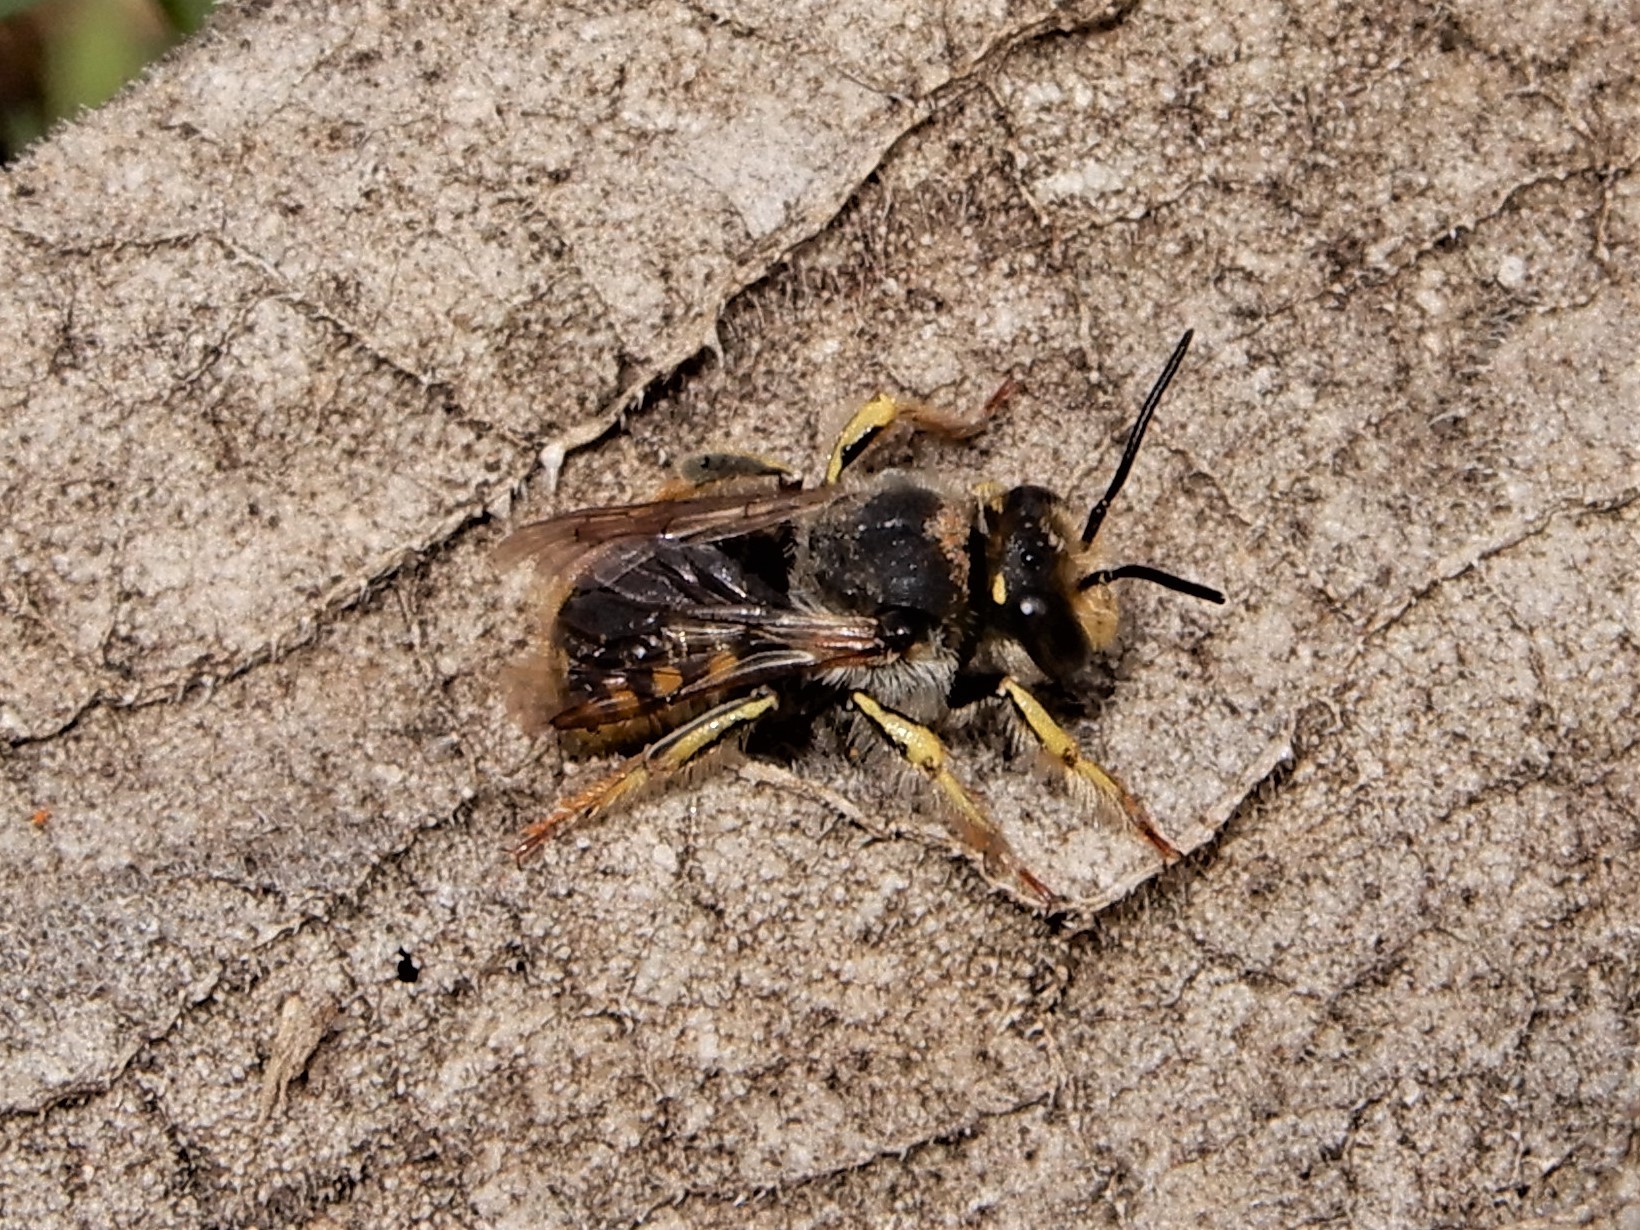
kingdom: Animalia
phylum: Arthropoda
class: Insecta
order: Hymenoptera
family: Megachilidae
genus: Anthidium
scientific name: Anthidium manicatum
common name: Wool carder bee
